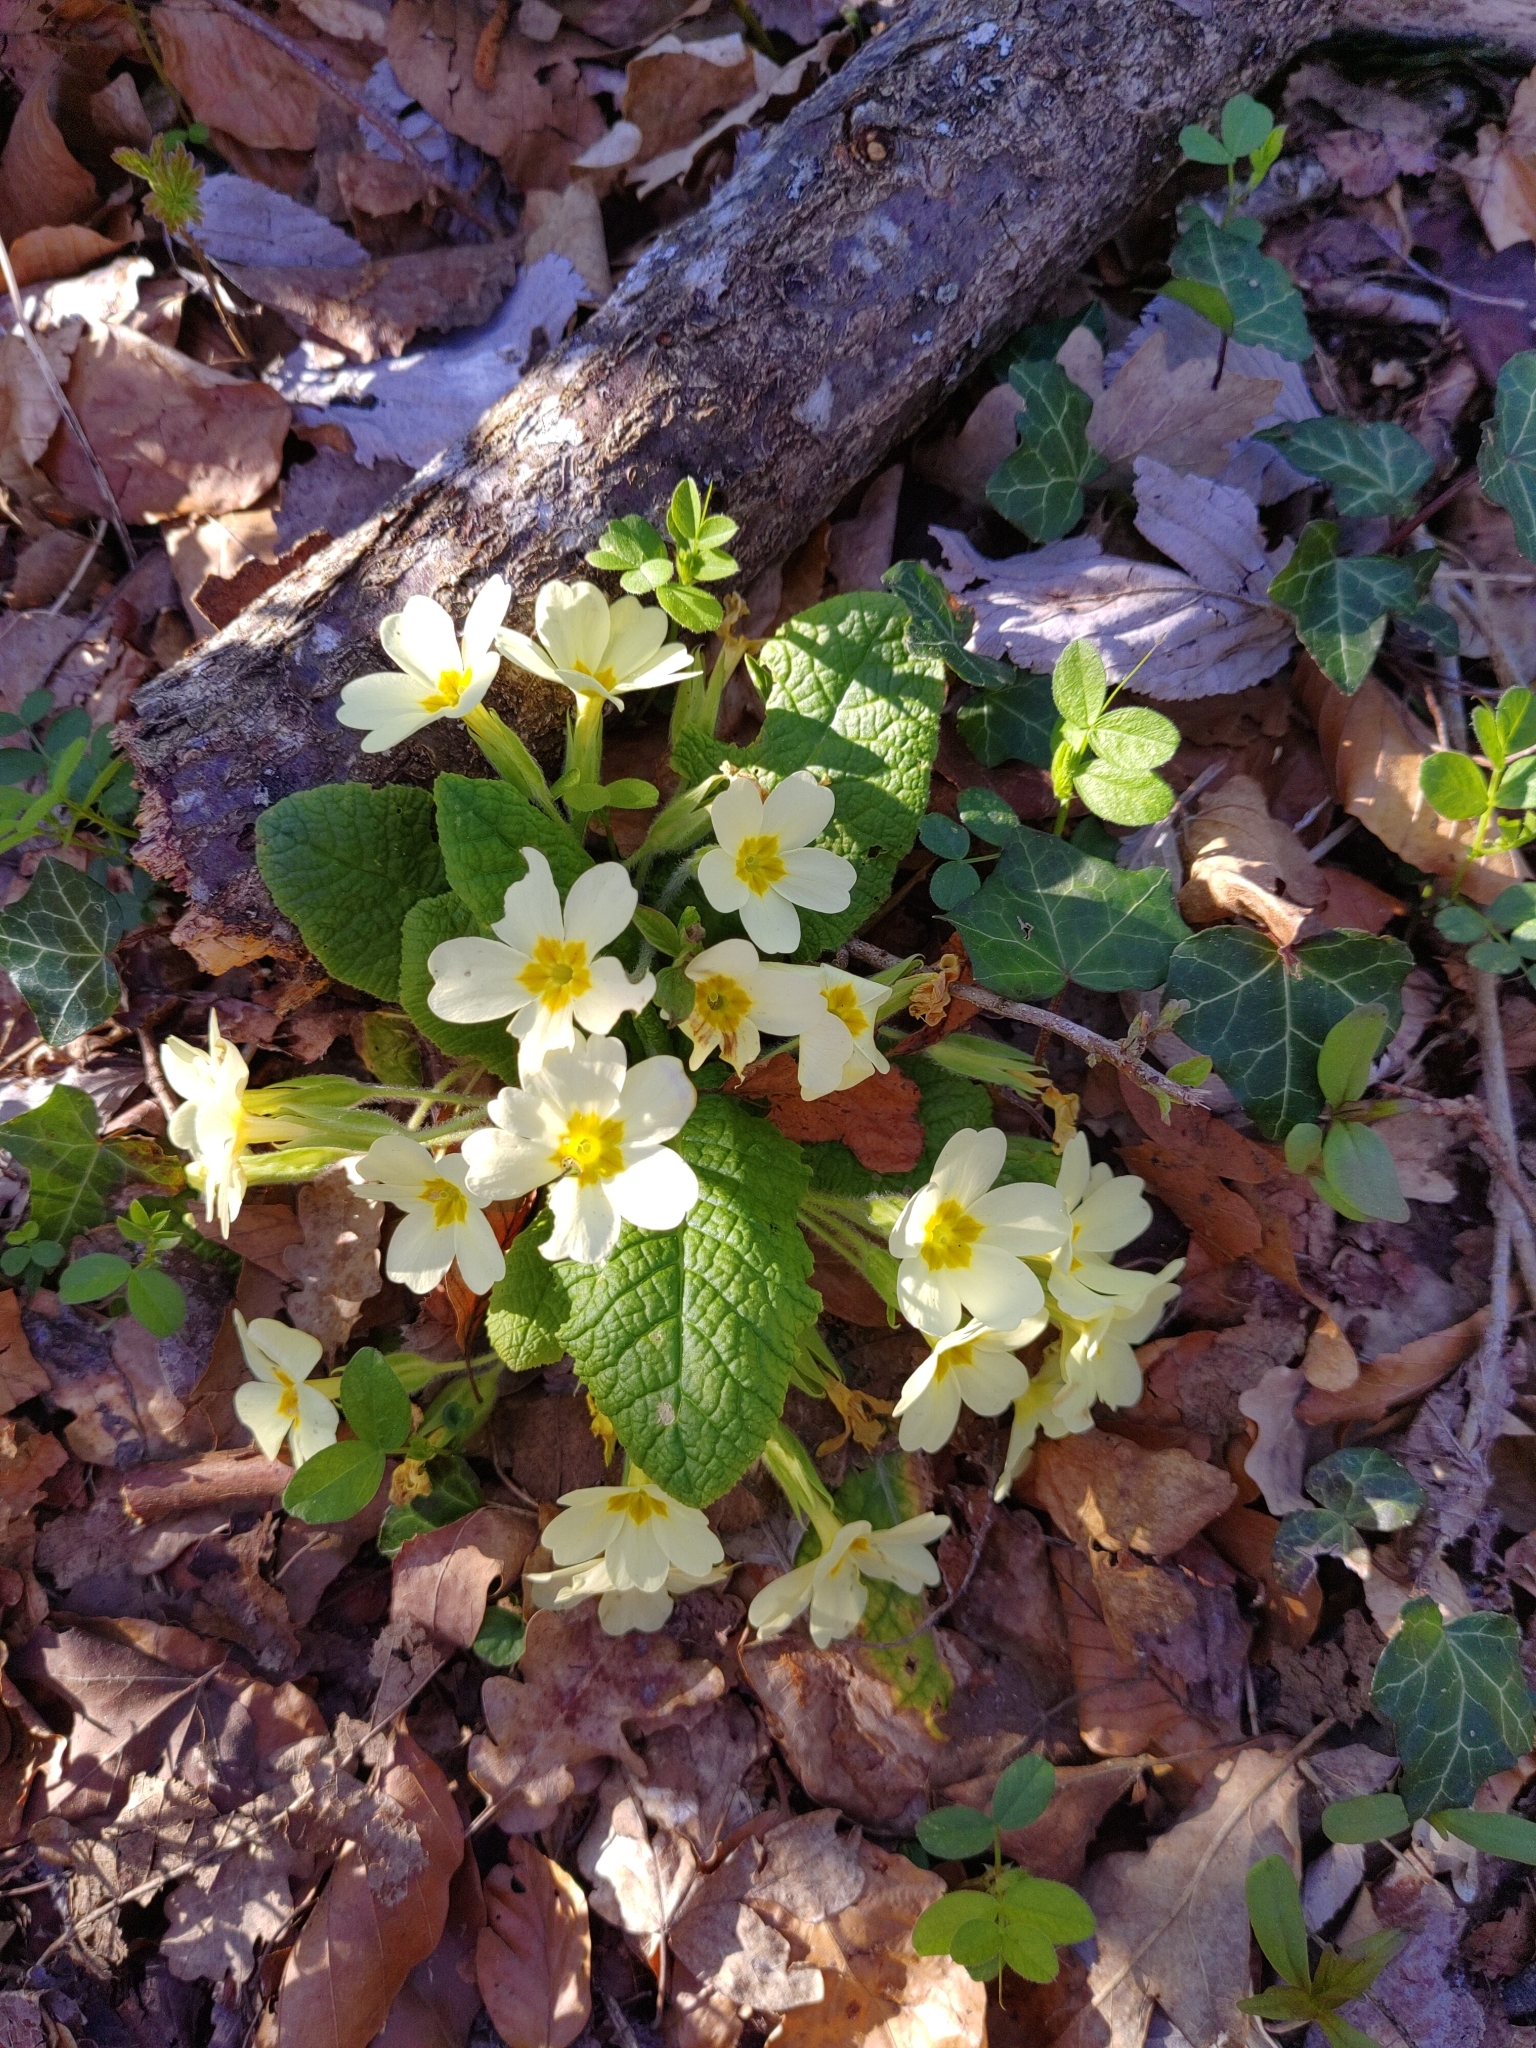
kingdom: Plantae
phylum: Tracheophyta
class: Magnoliopsida
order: Ericales
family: Primulaceae
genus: Primula
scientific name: Primula vulgaris
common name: Primrose
